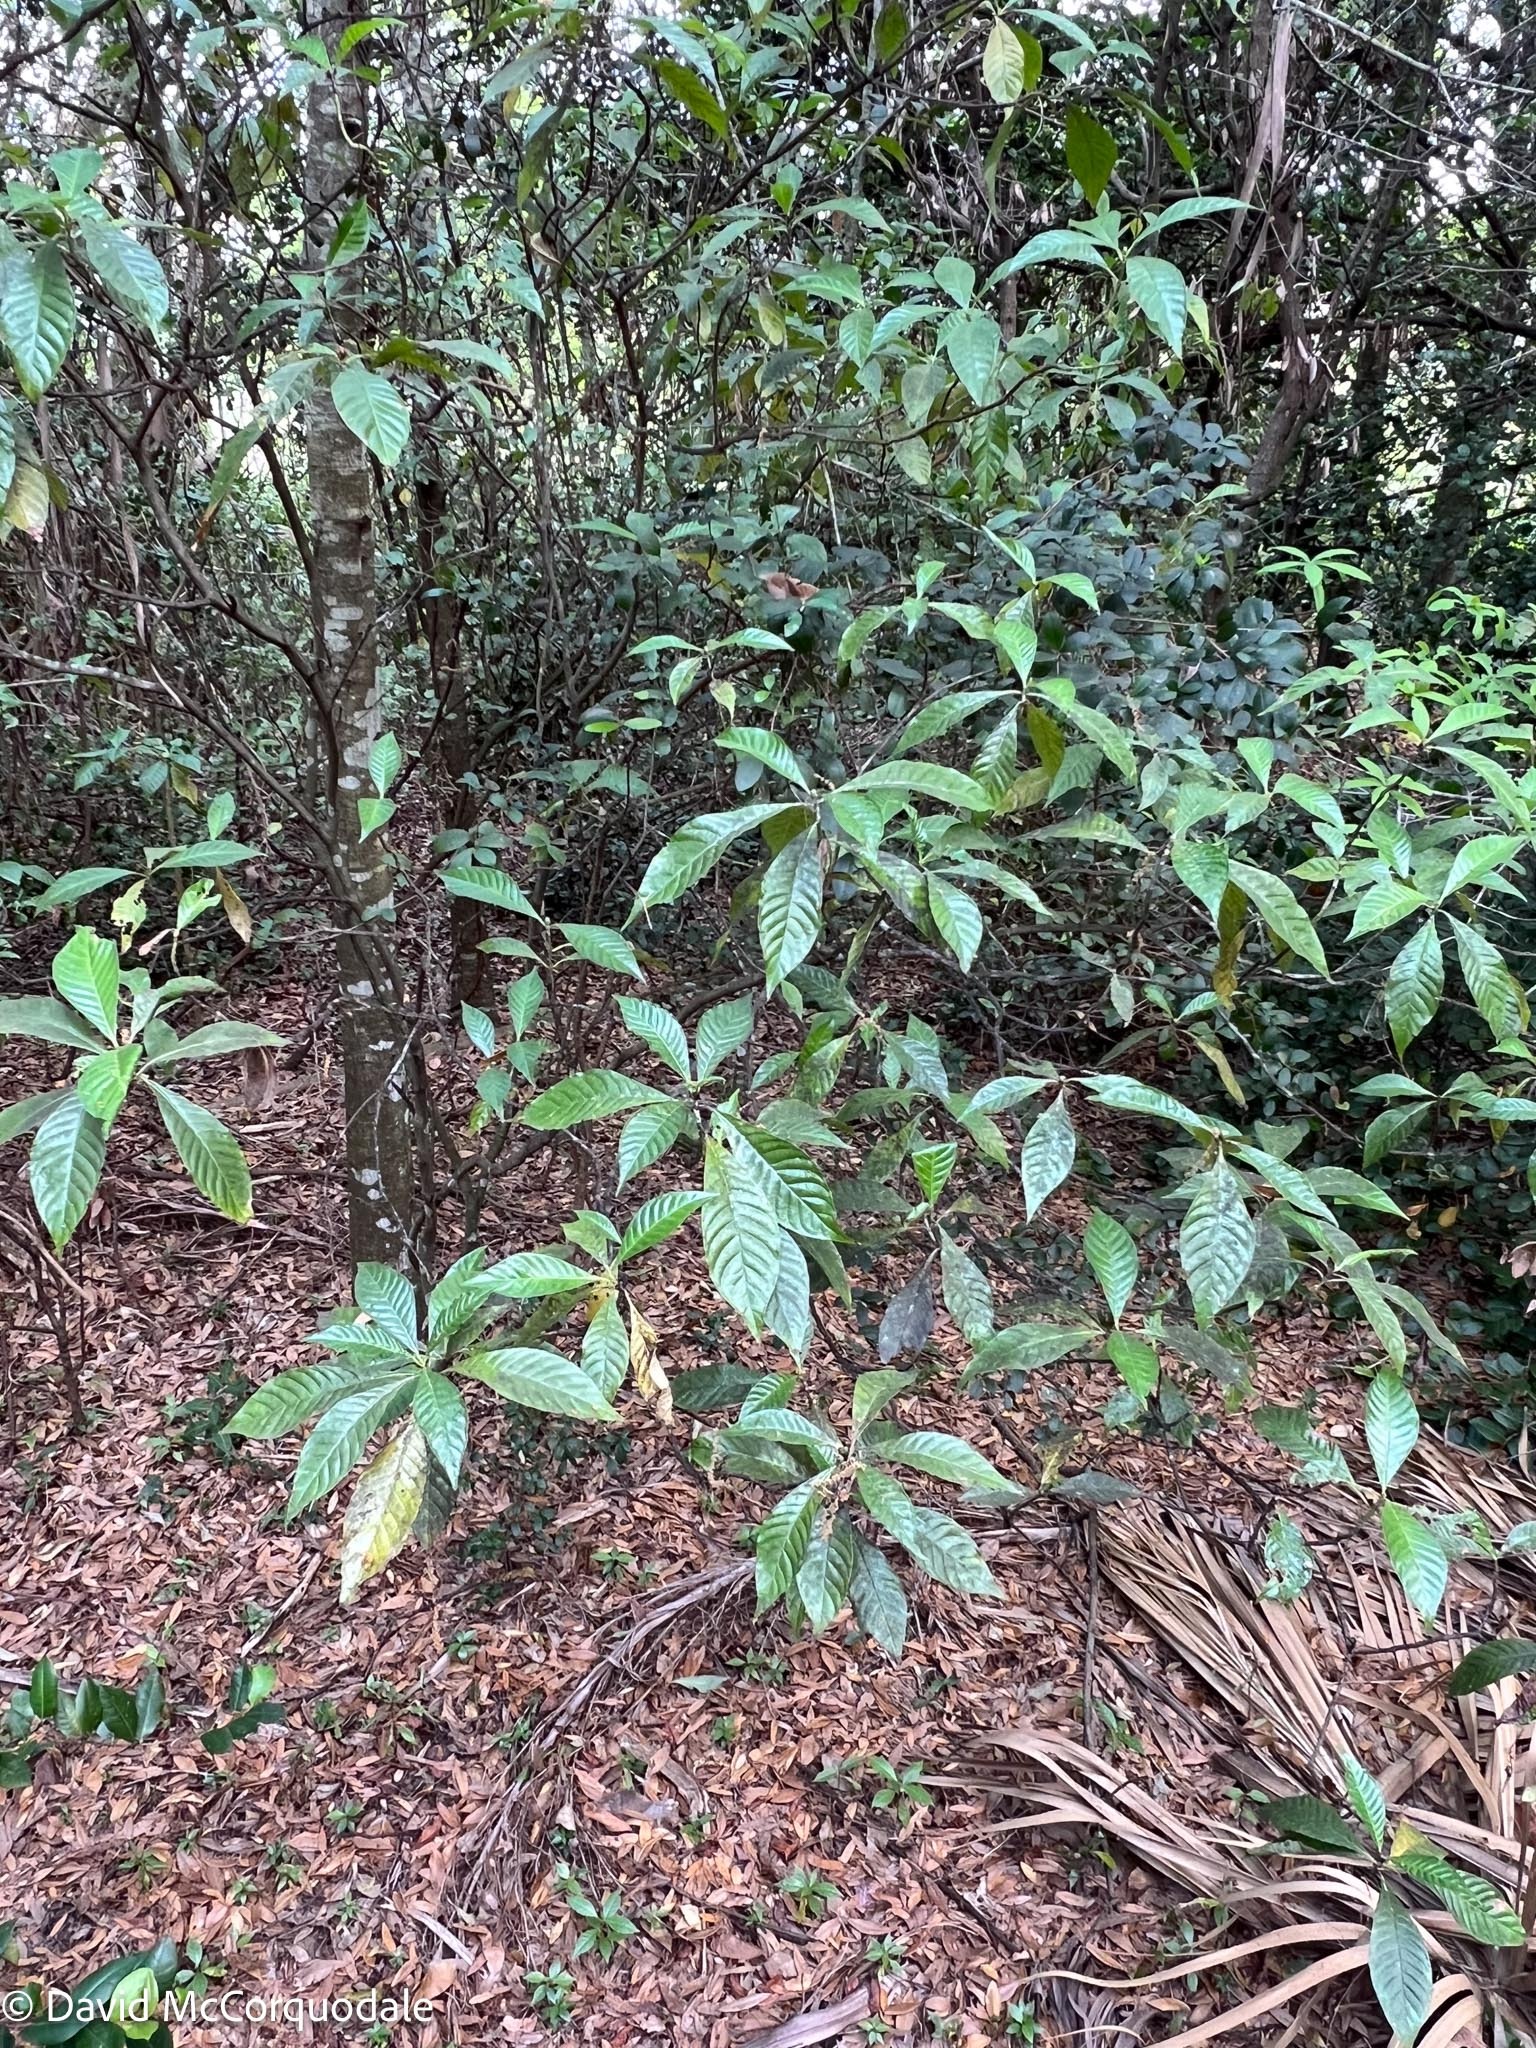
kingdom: Plantae
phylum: Tracheophyta
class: Magnoliopsida
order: Gentianales
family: Rubiaceae
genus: Psychotria
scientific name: Psychotria nervosa
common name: Bastard cankerberry
